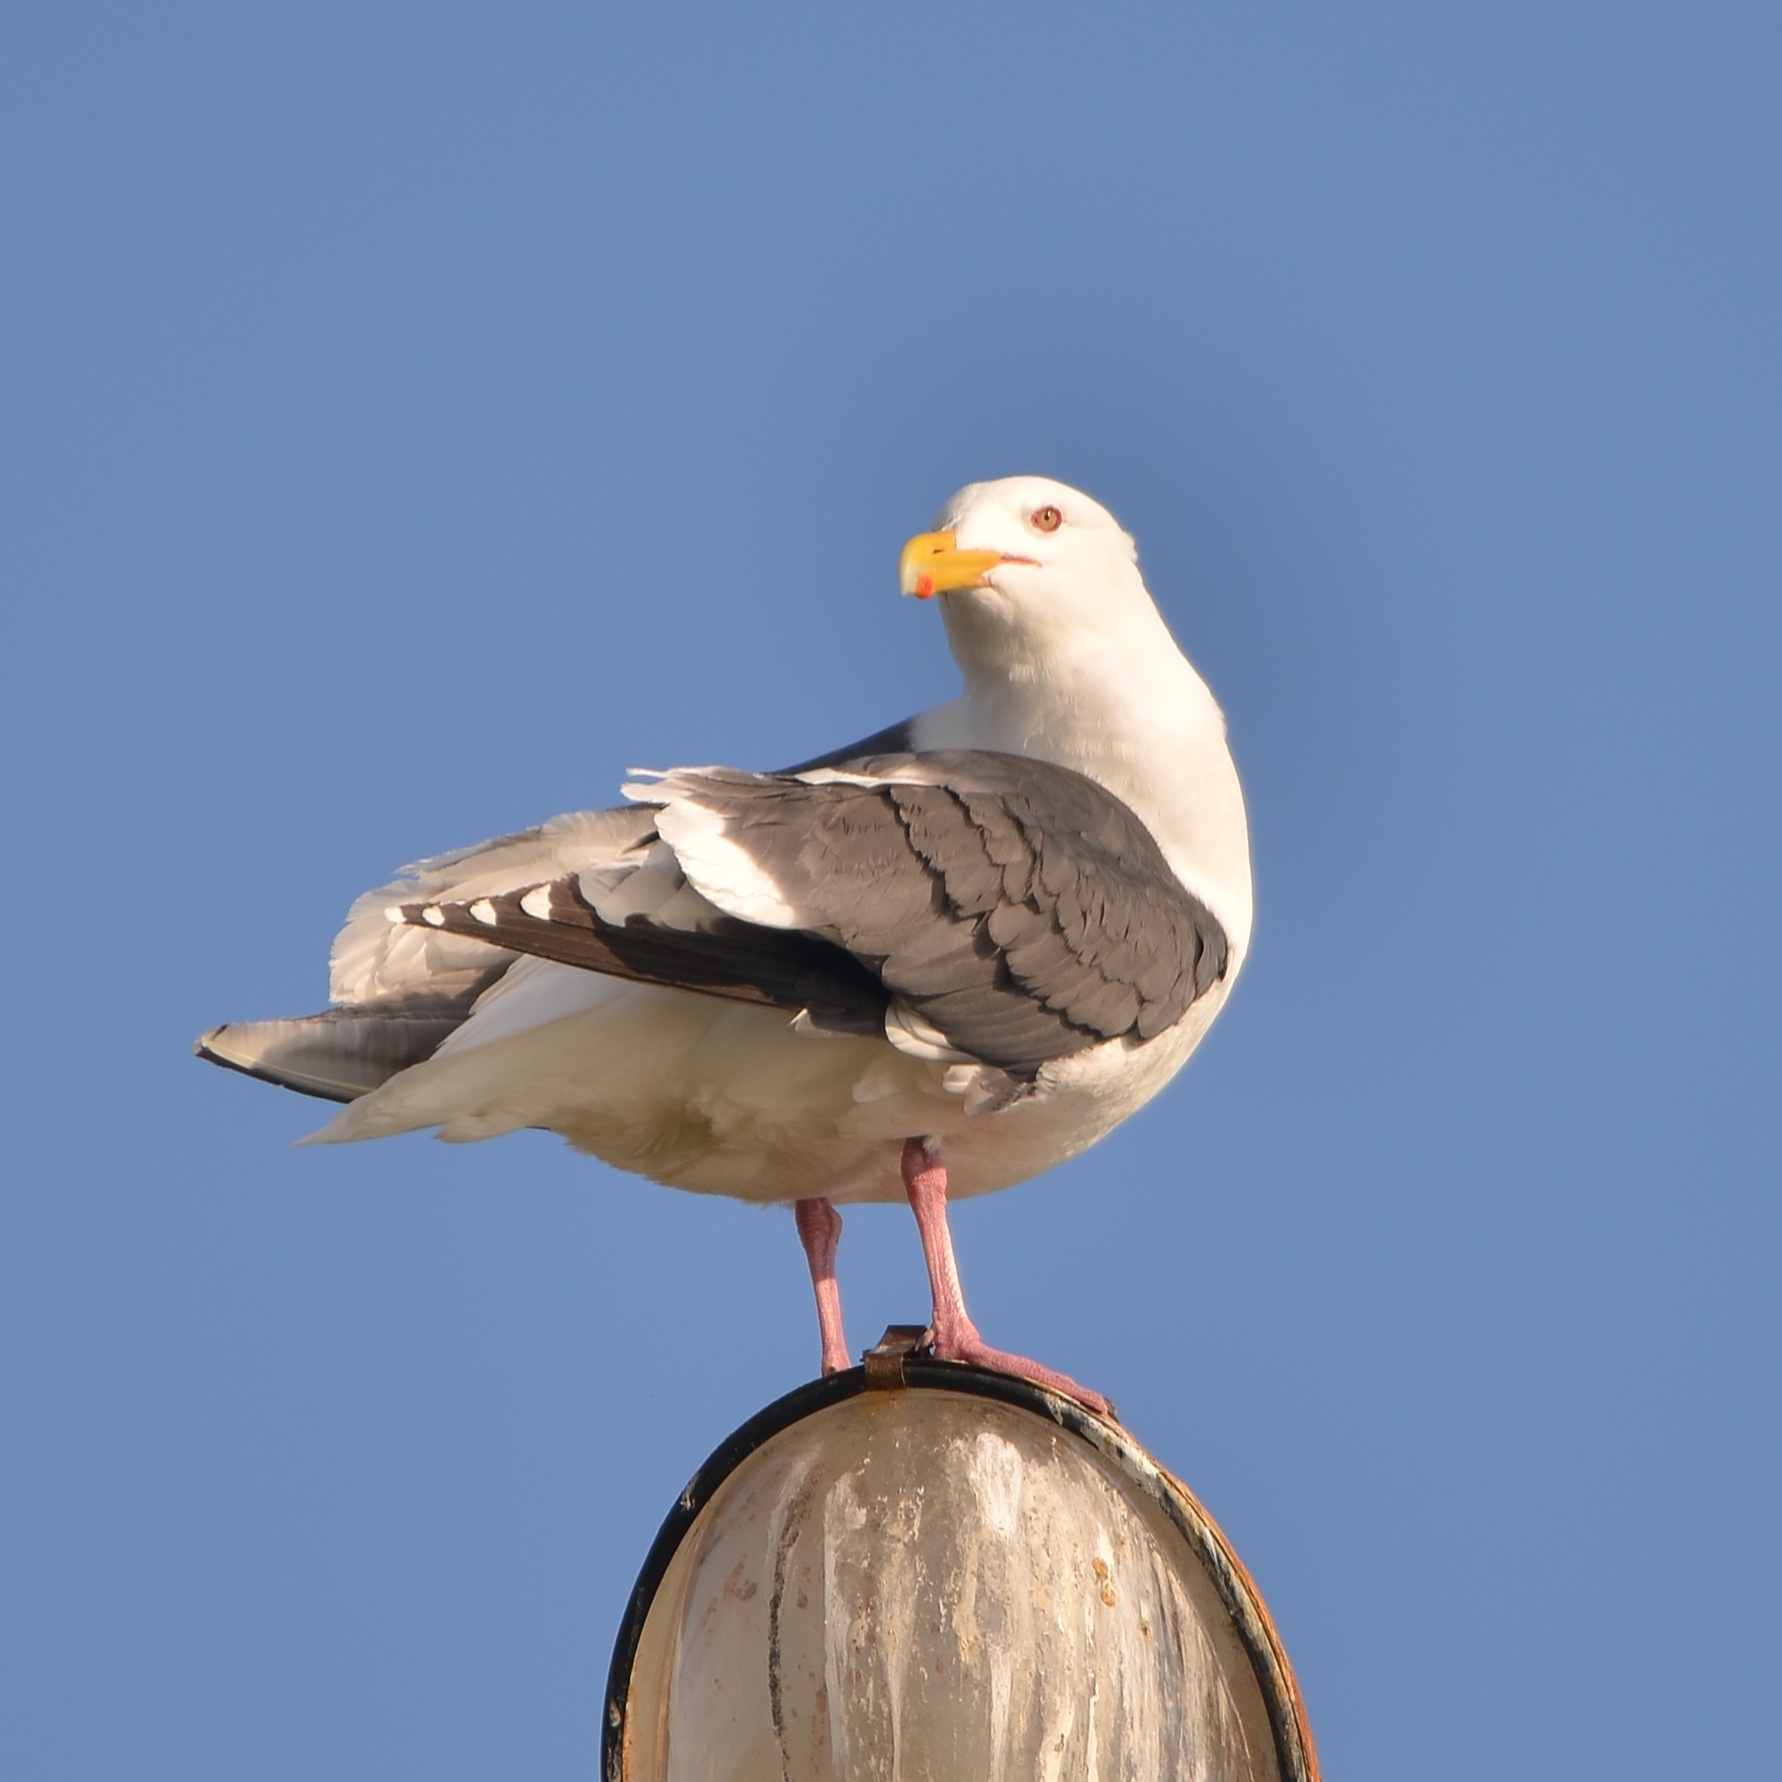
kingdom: Animalia
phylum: Chordata
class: Aves
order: Charadriiformes
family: Laridae
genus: Larus
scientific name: Larus schistisagus
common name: Slaty-backed gull
